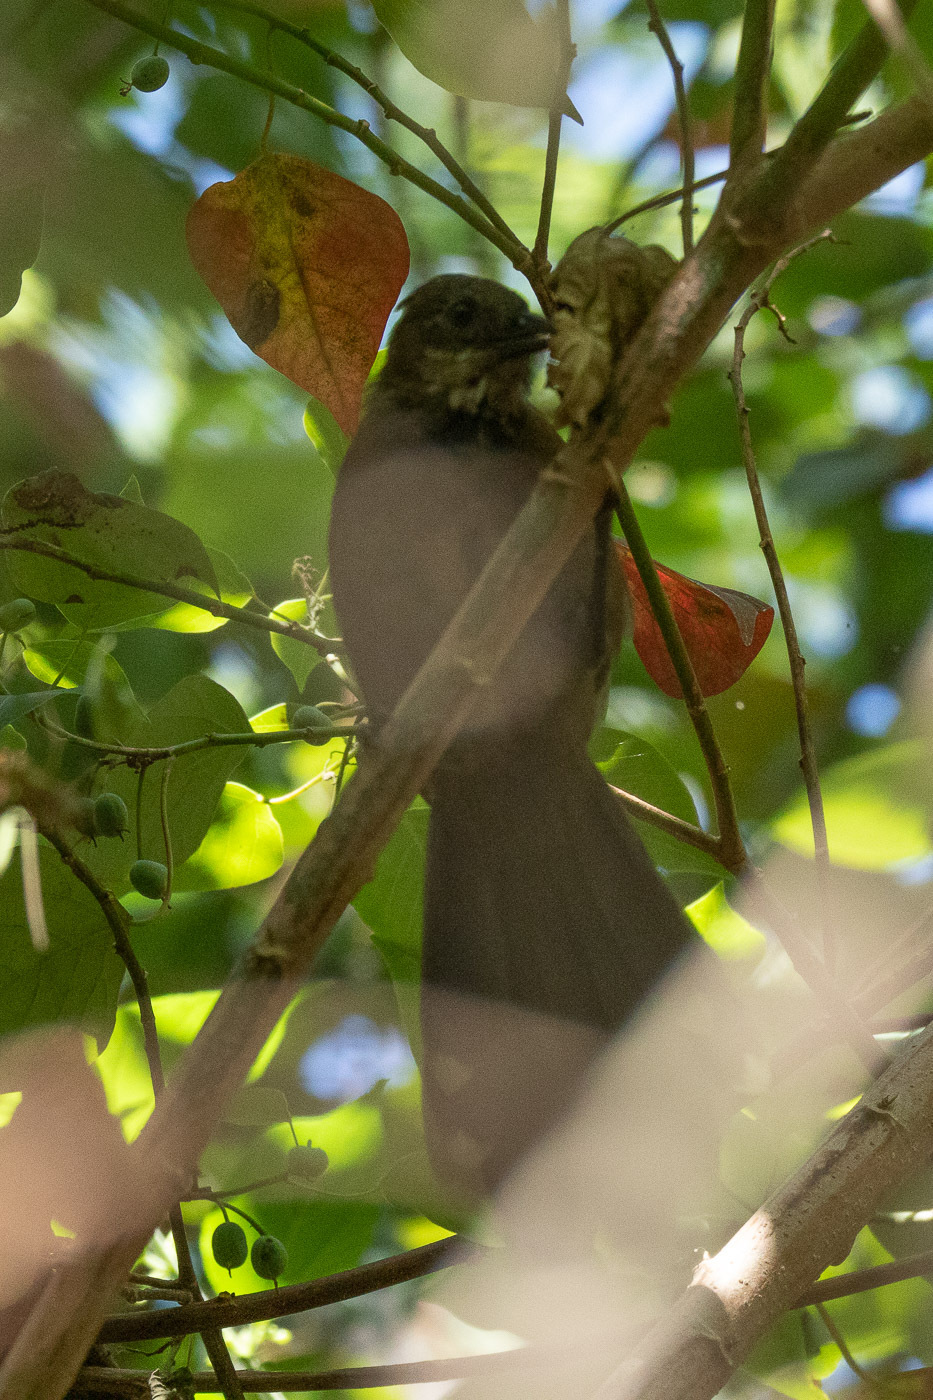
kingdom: Animalia
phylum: Chordata
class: Aves
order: Passeriformes
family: Psophodidae
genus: Psophodes
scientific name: Psophodes olivaceus
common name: Eastern whipbird
